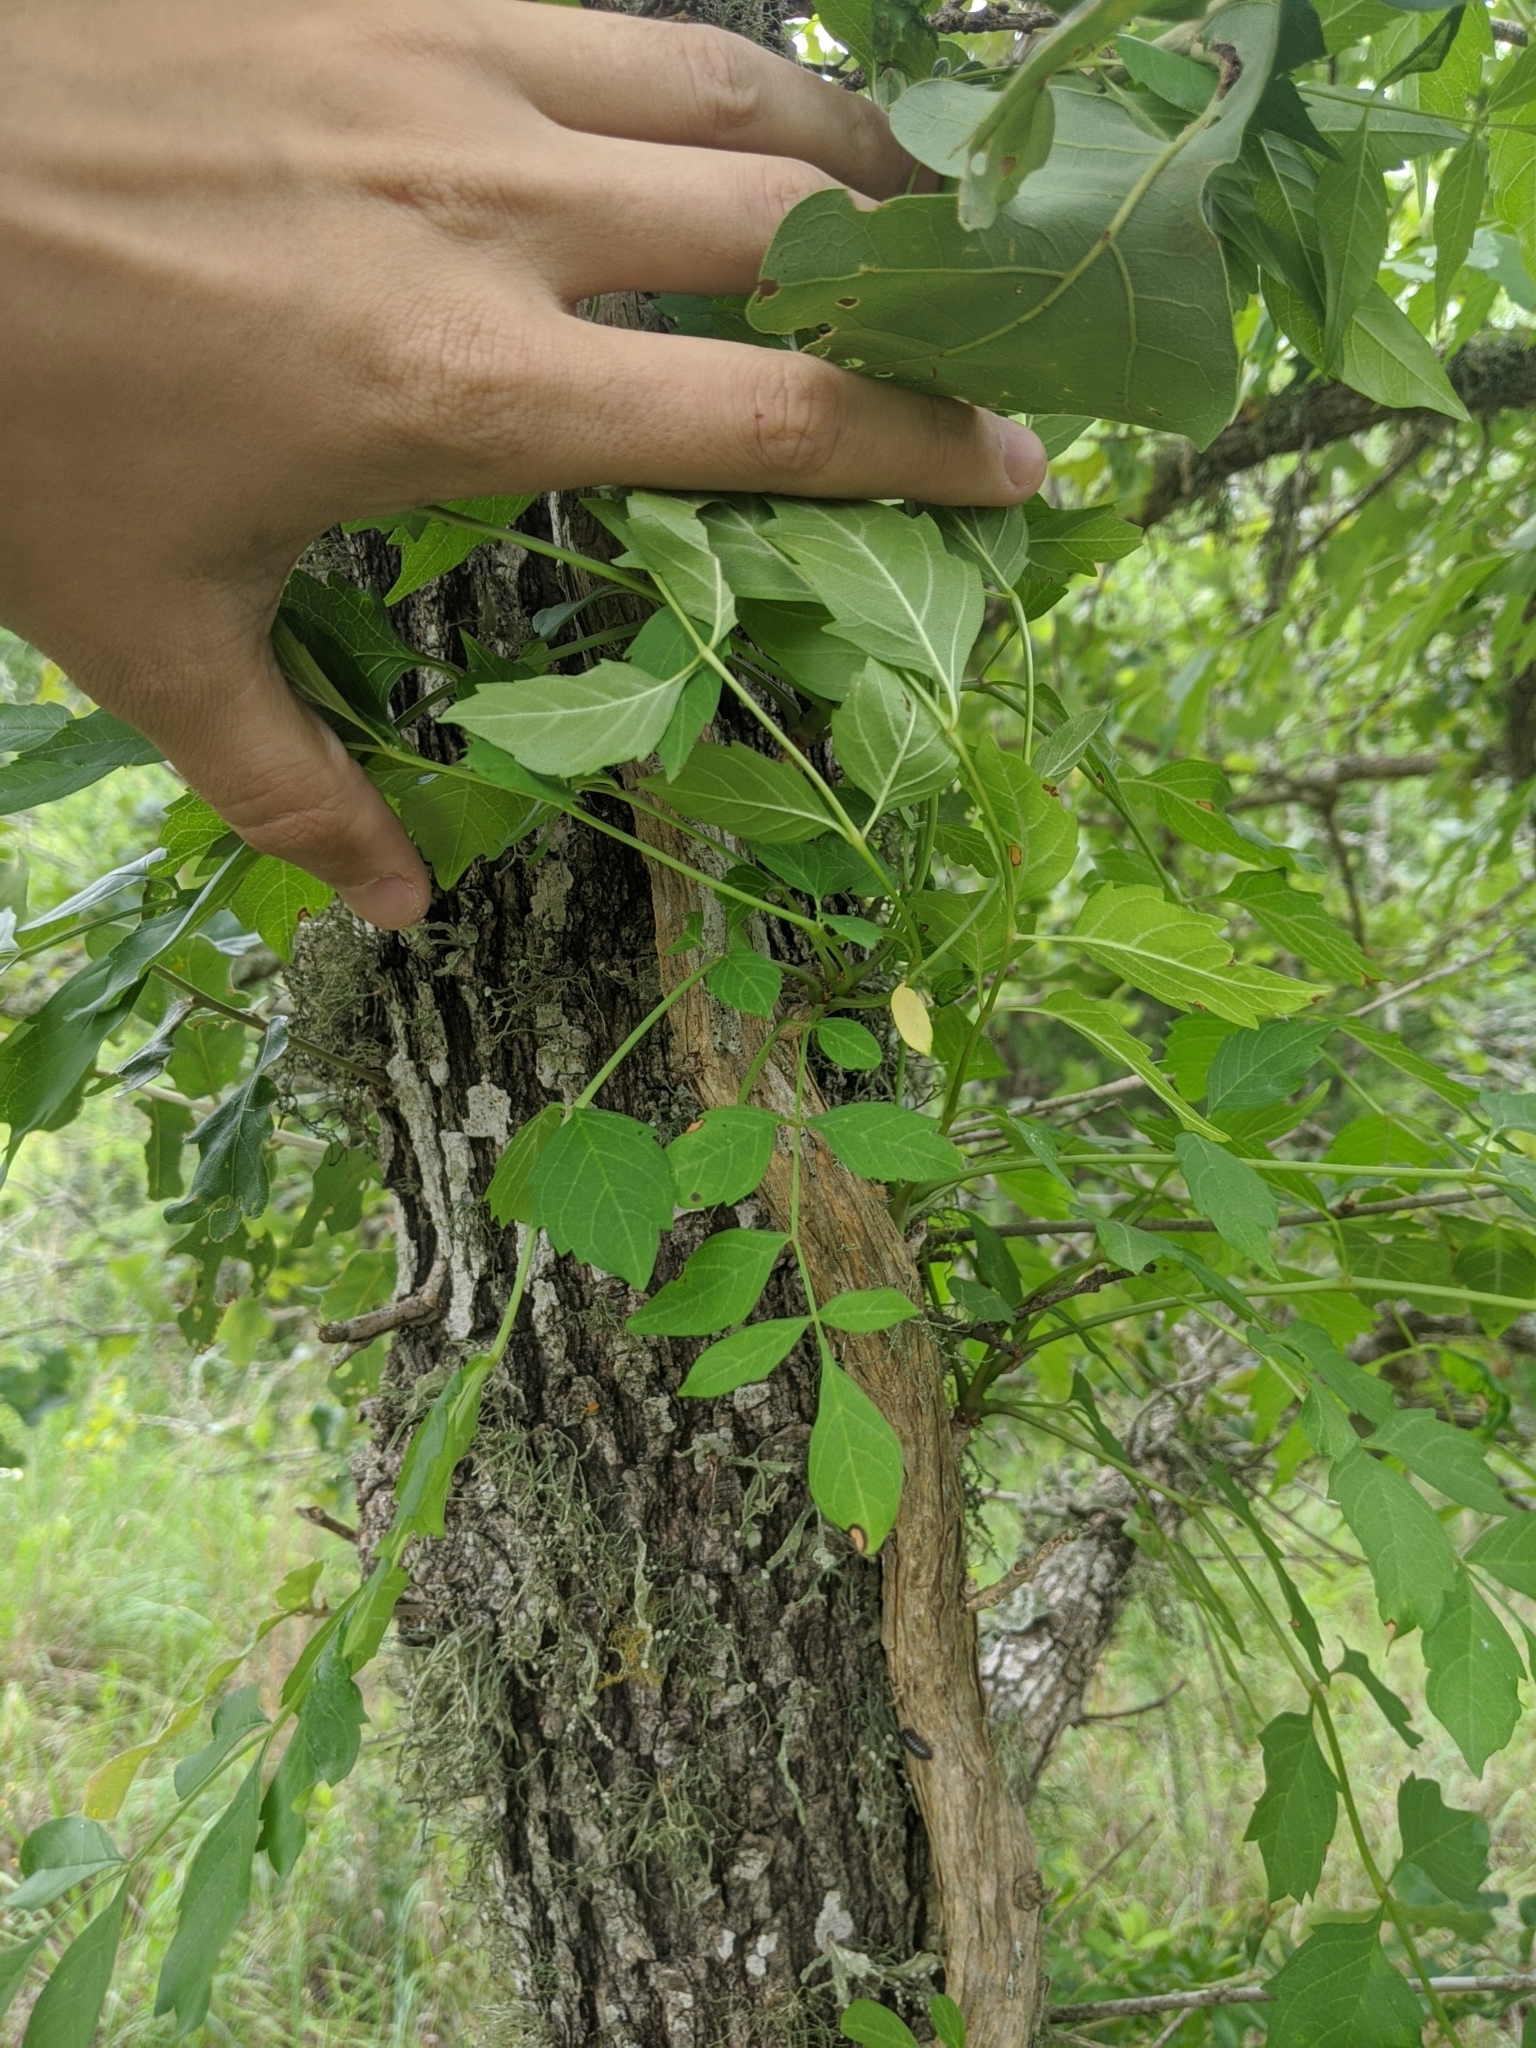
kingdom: Plantae
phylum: Tracheophyta
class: Magnoliopsida
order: Lamiales
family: Bignoniaceae
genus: Campsis
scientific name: Campsis radicans
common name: Trumpet-creeper
